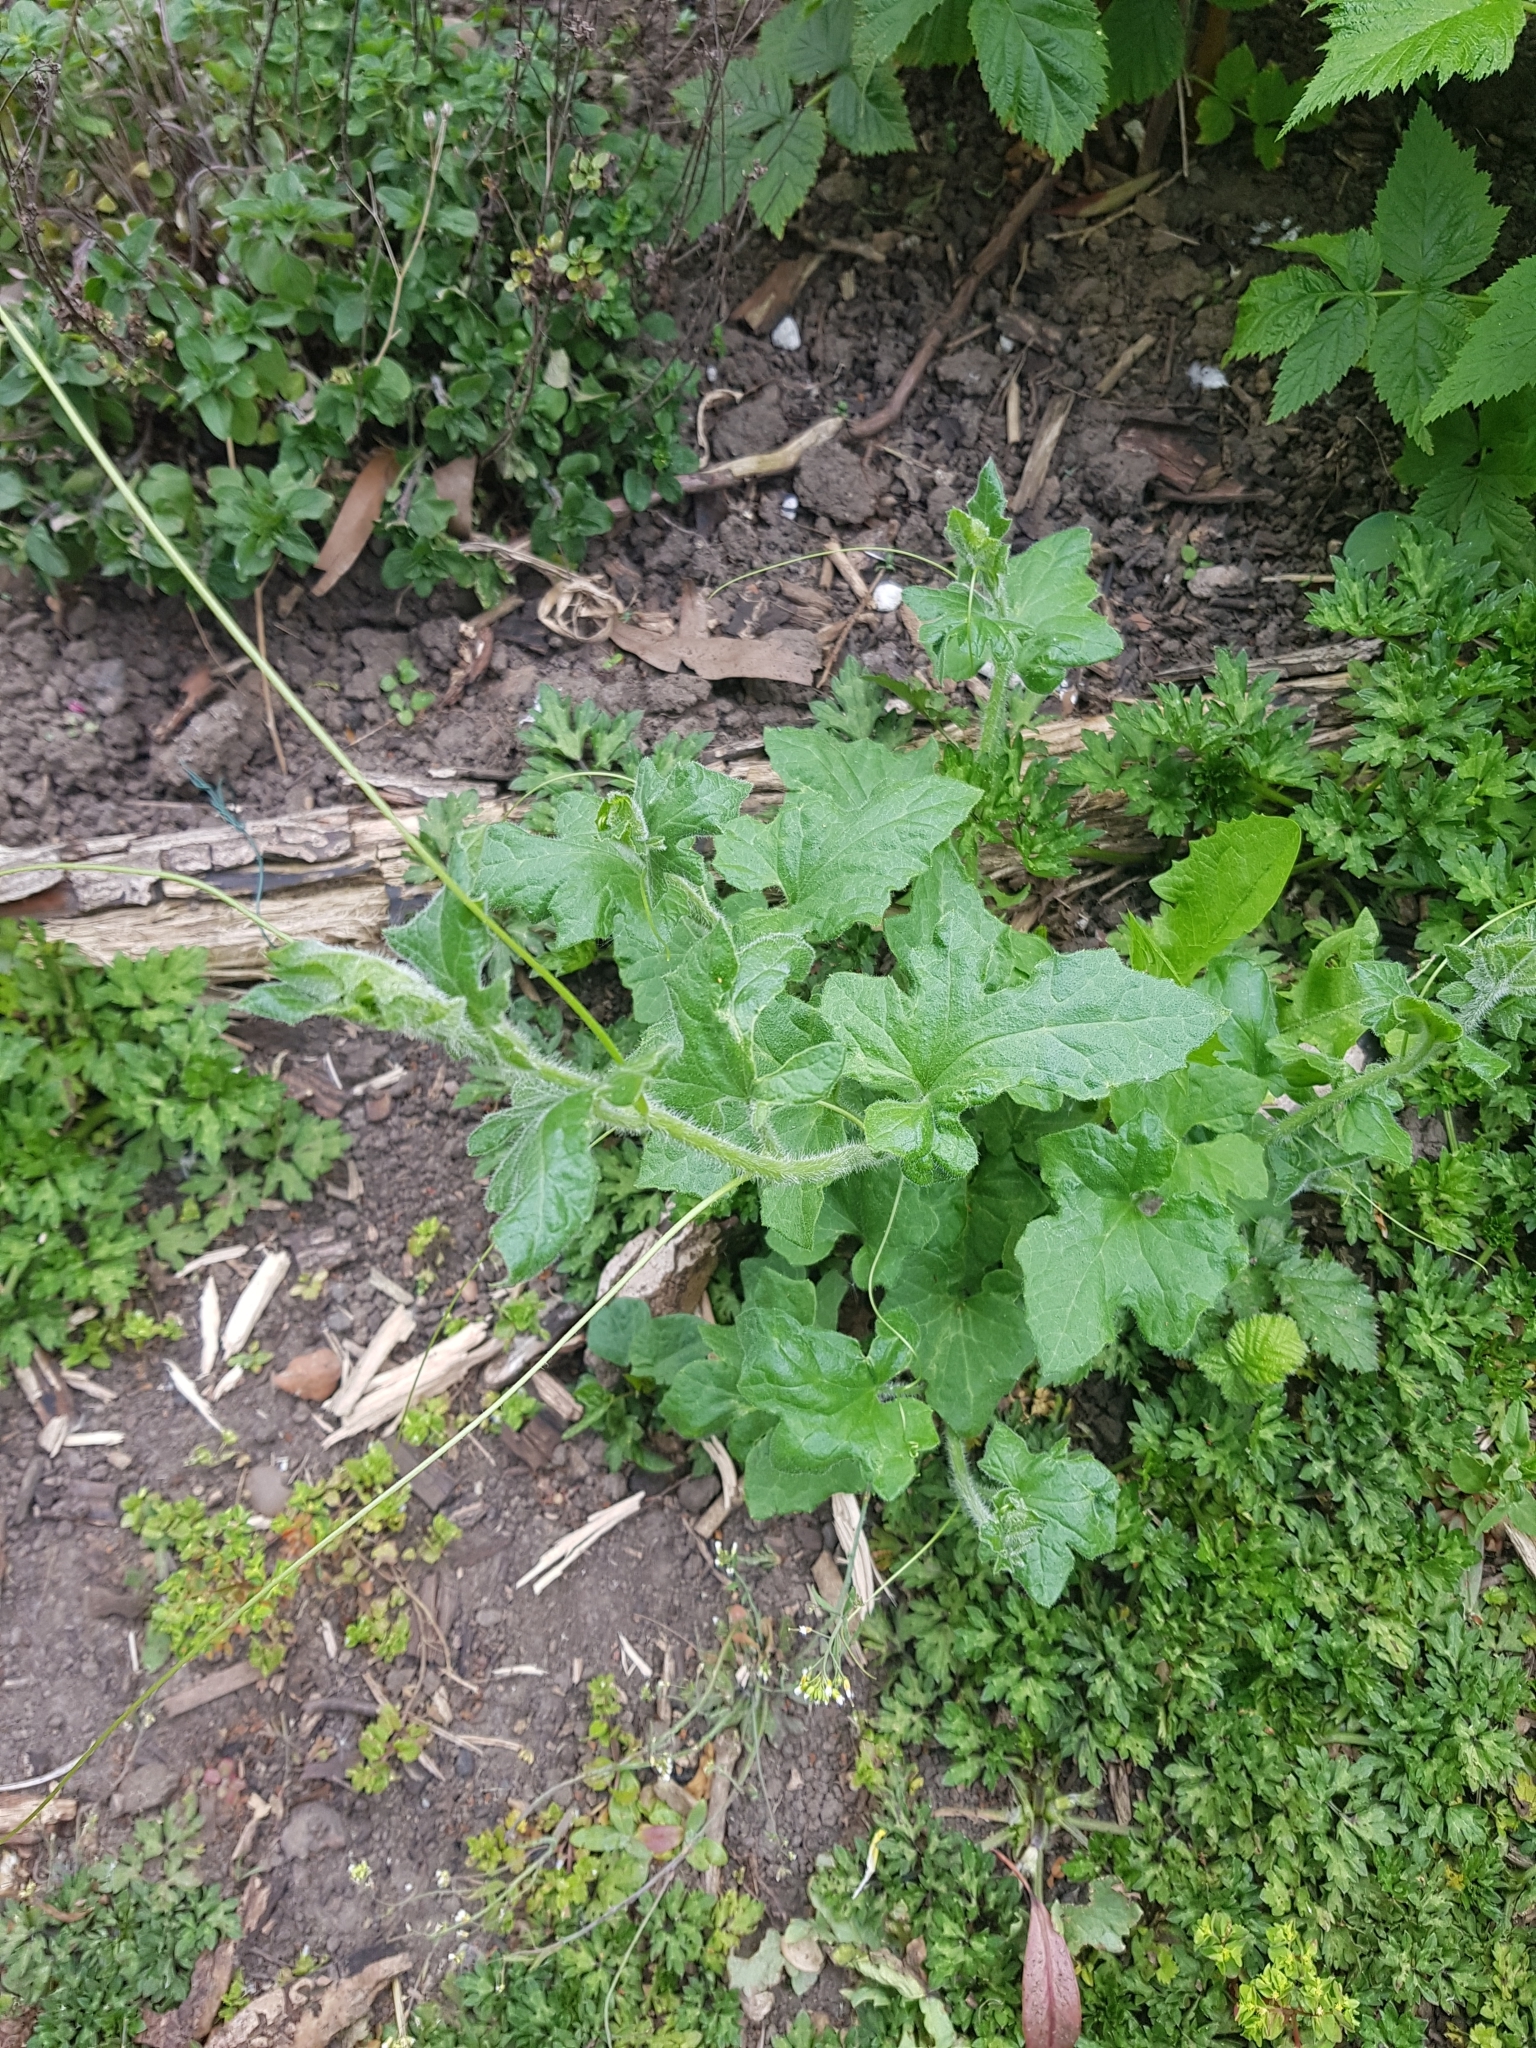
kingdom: Plantae
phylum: Tracheophyta
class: Magnoliopsida
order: Cucurbitales
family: Cucurbitaceae
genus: Bryonia
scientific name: Bryonia cretica
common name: Cretan bryony
